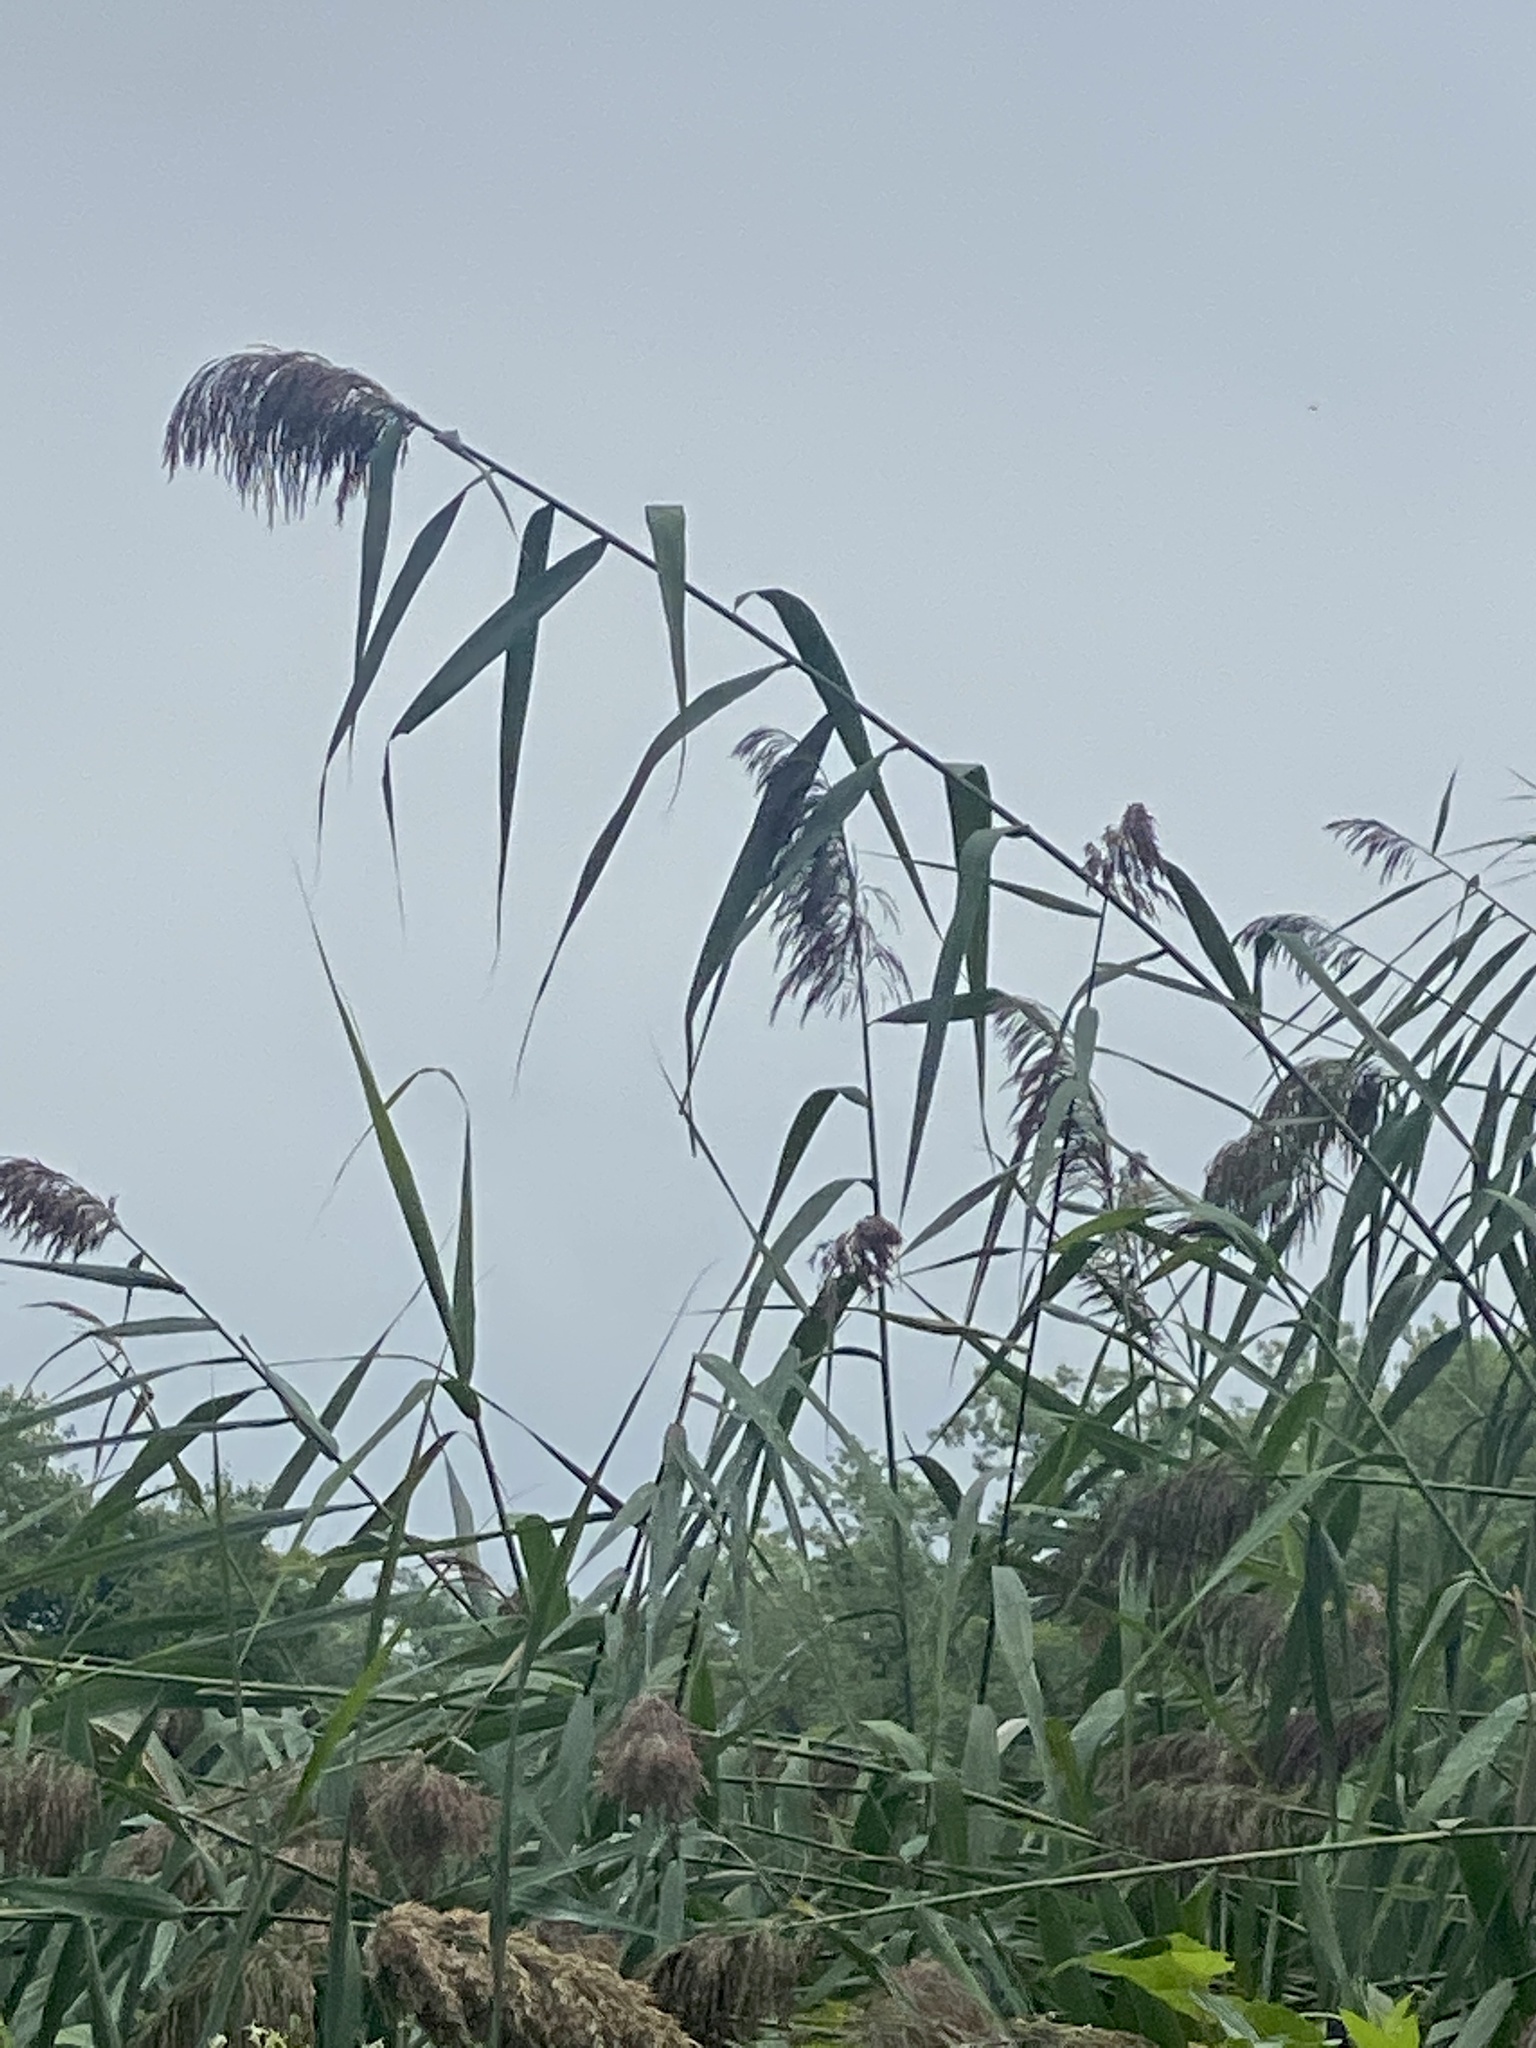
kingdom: Plantae
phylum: Tracheophyta
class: Liliopsida
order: Poales
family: Poaceae
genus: Phragmites
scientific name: Phragmites australis
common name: Common reed
